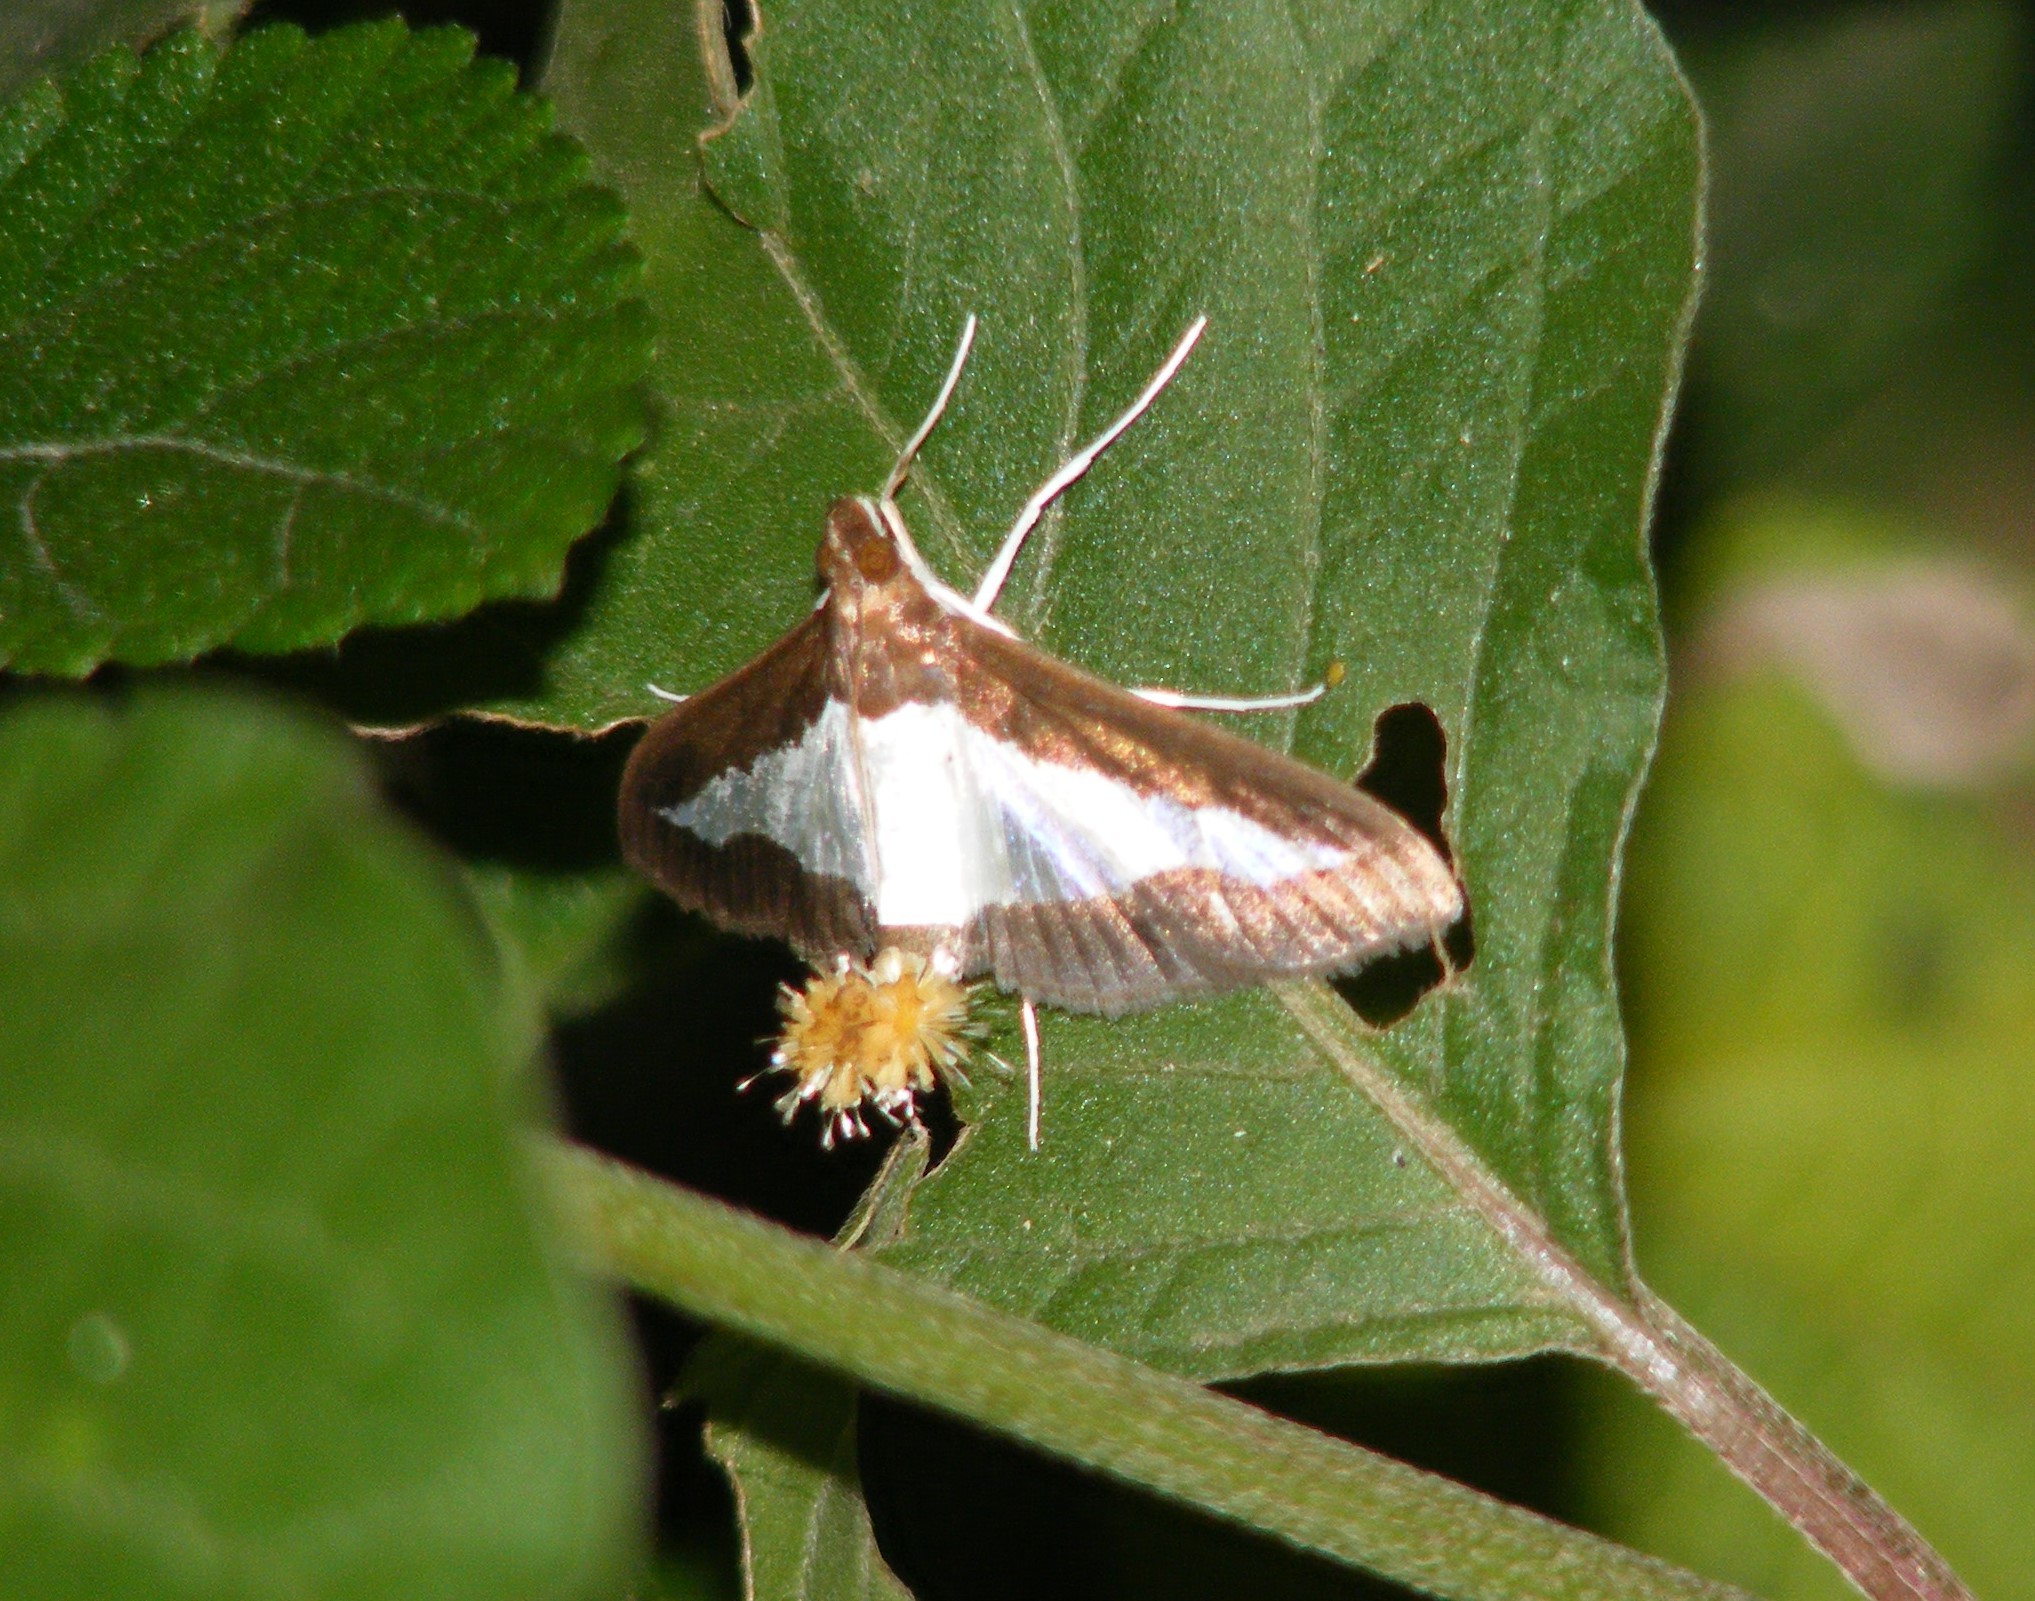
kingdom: Animalia
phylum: Arthropoda
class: Insecta
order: Lepidoptera
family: Crambidae
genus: Diaphania
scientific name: Diaphania indica
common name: Cucumber moth
